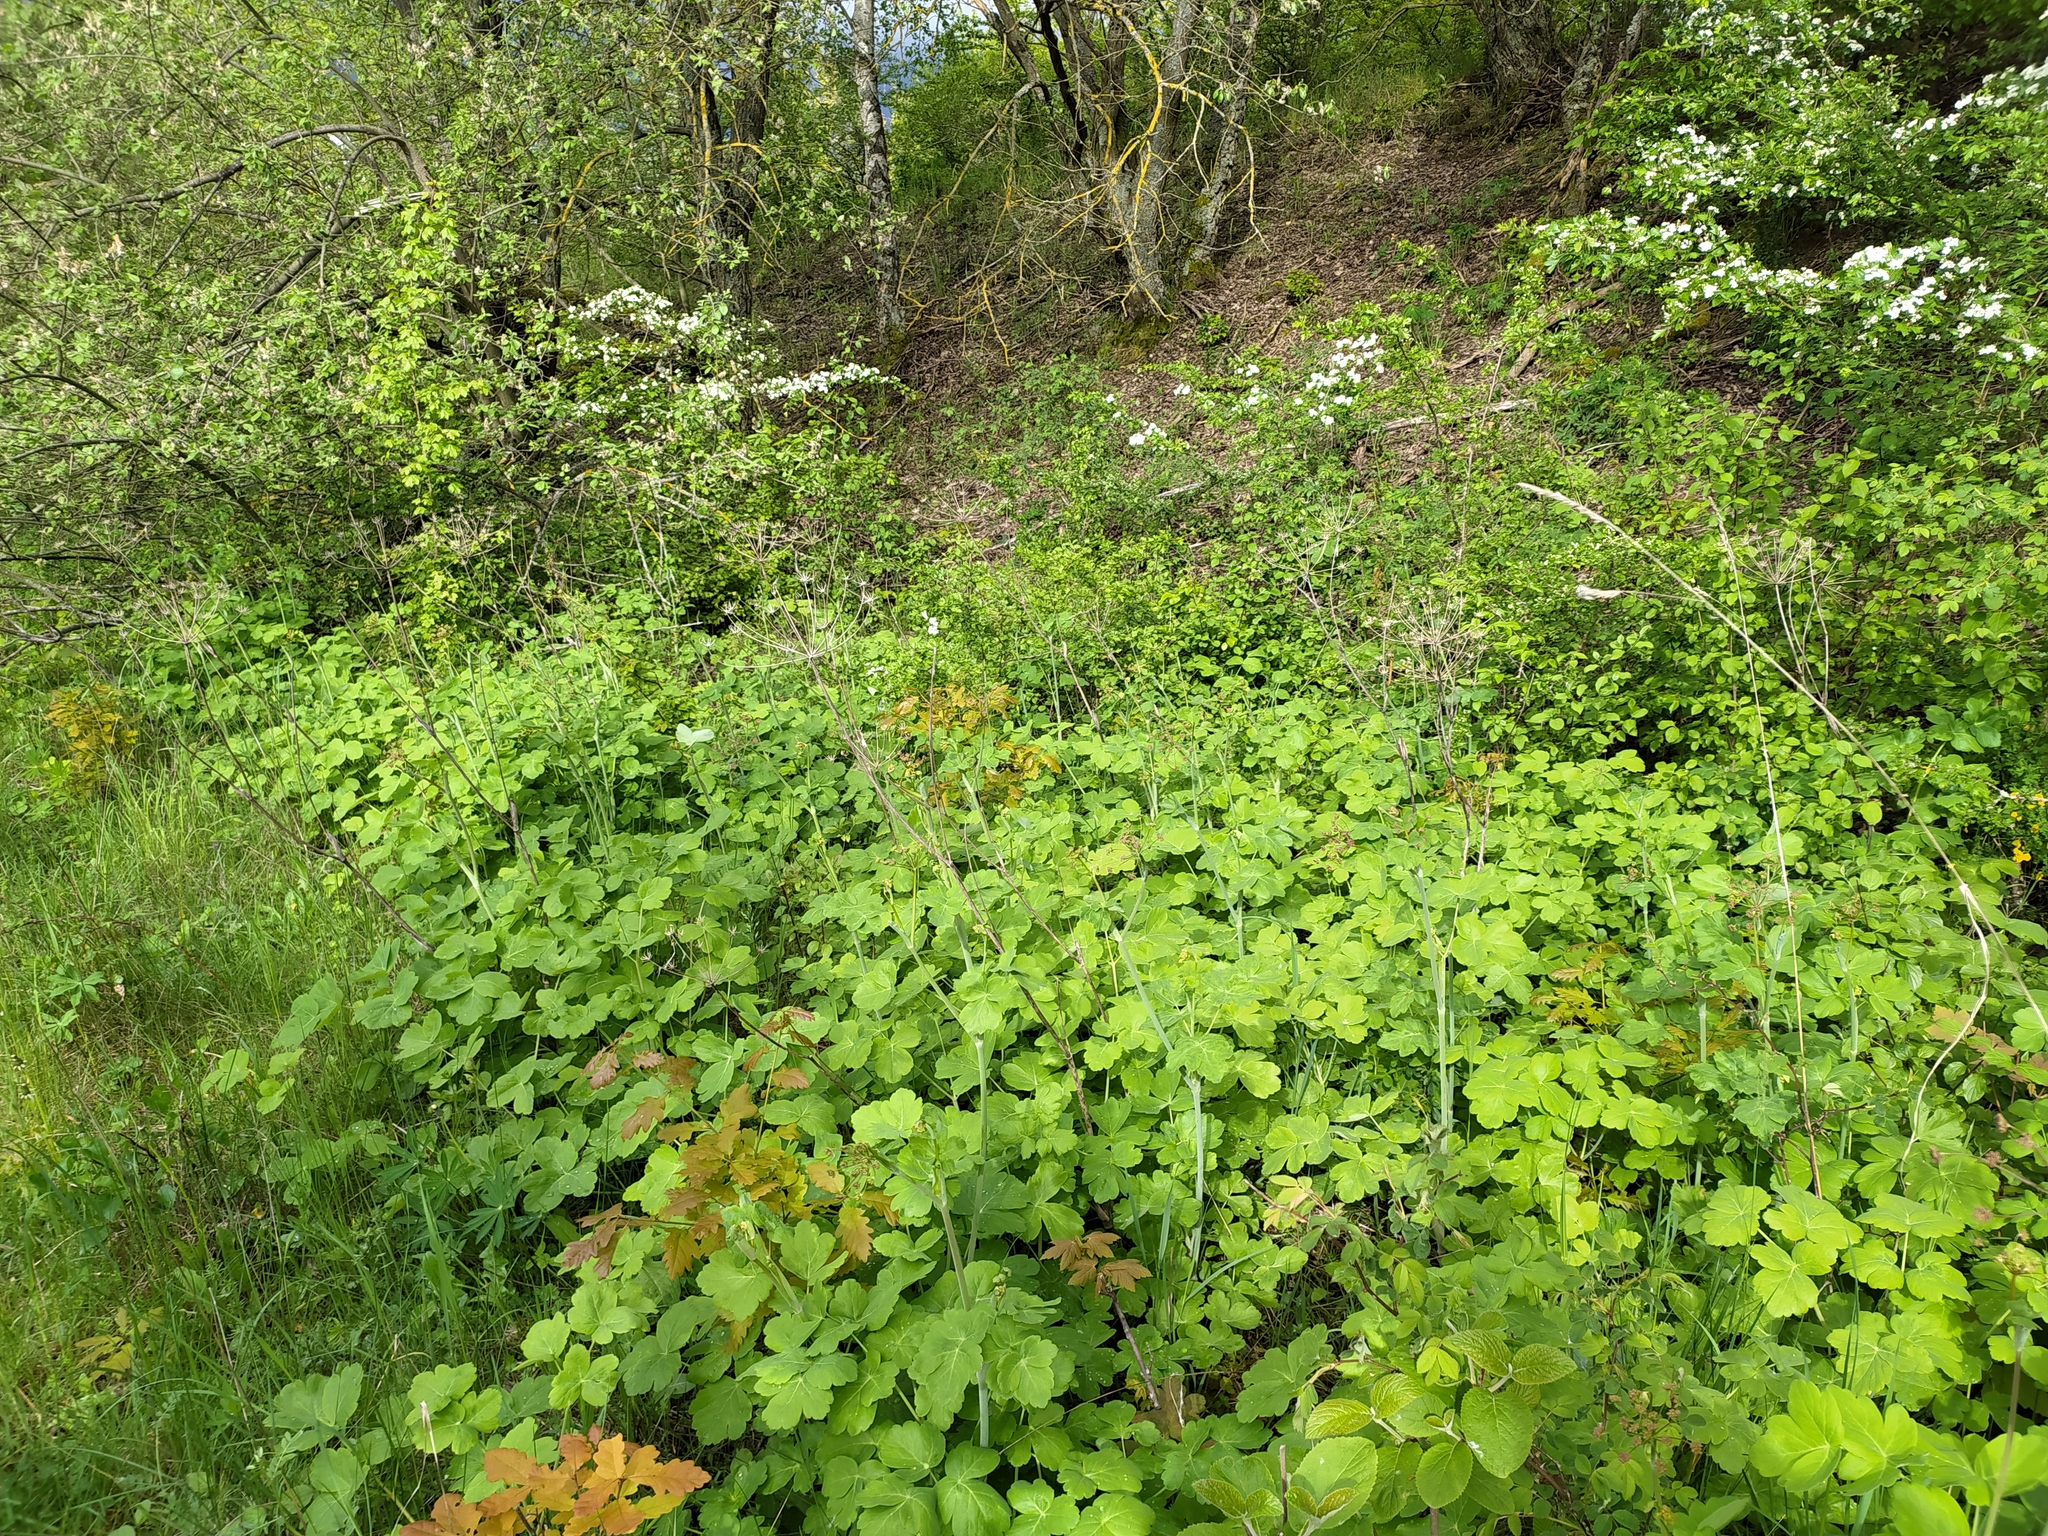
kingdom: Plantae
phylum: Tracheophyta
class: Magnoliopsida
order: Apiales
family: Apiaceae
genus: Laser
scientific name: Laser trilobum
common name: Laser
